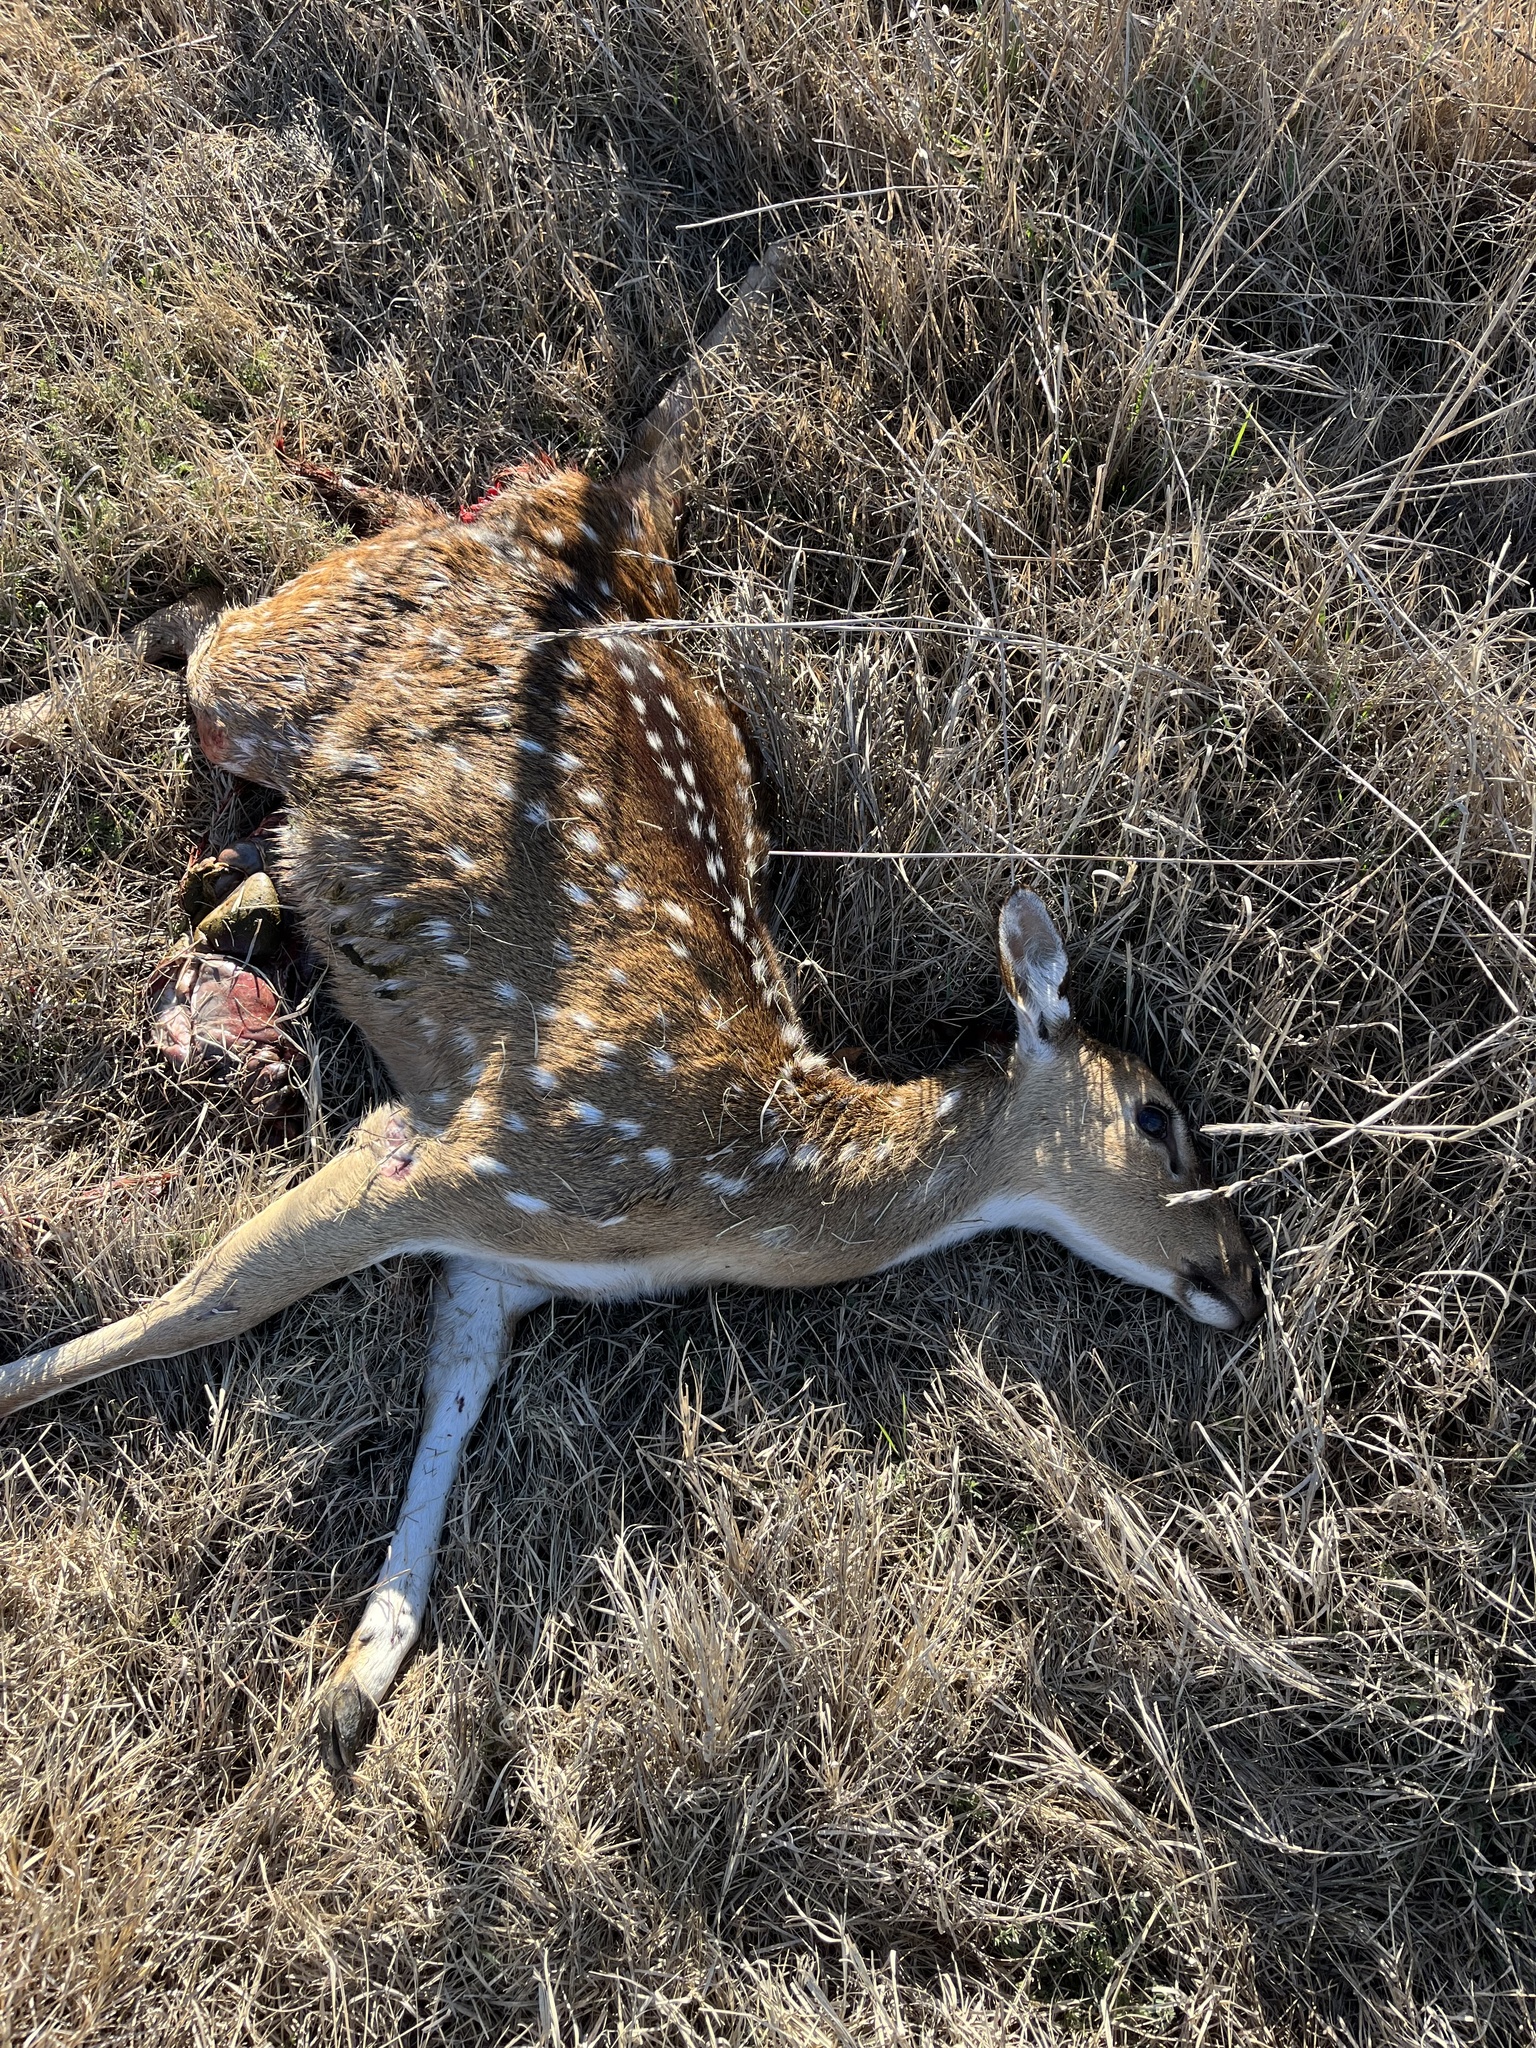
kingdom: Animalia
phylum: Chordata
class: Mammalia
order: Artiodactyla
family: Cervidae
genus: Axis
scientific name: Axis axis
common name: Chital
